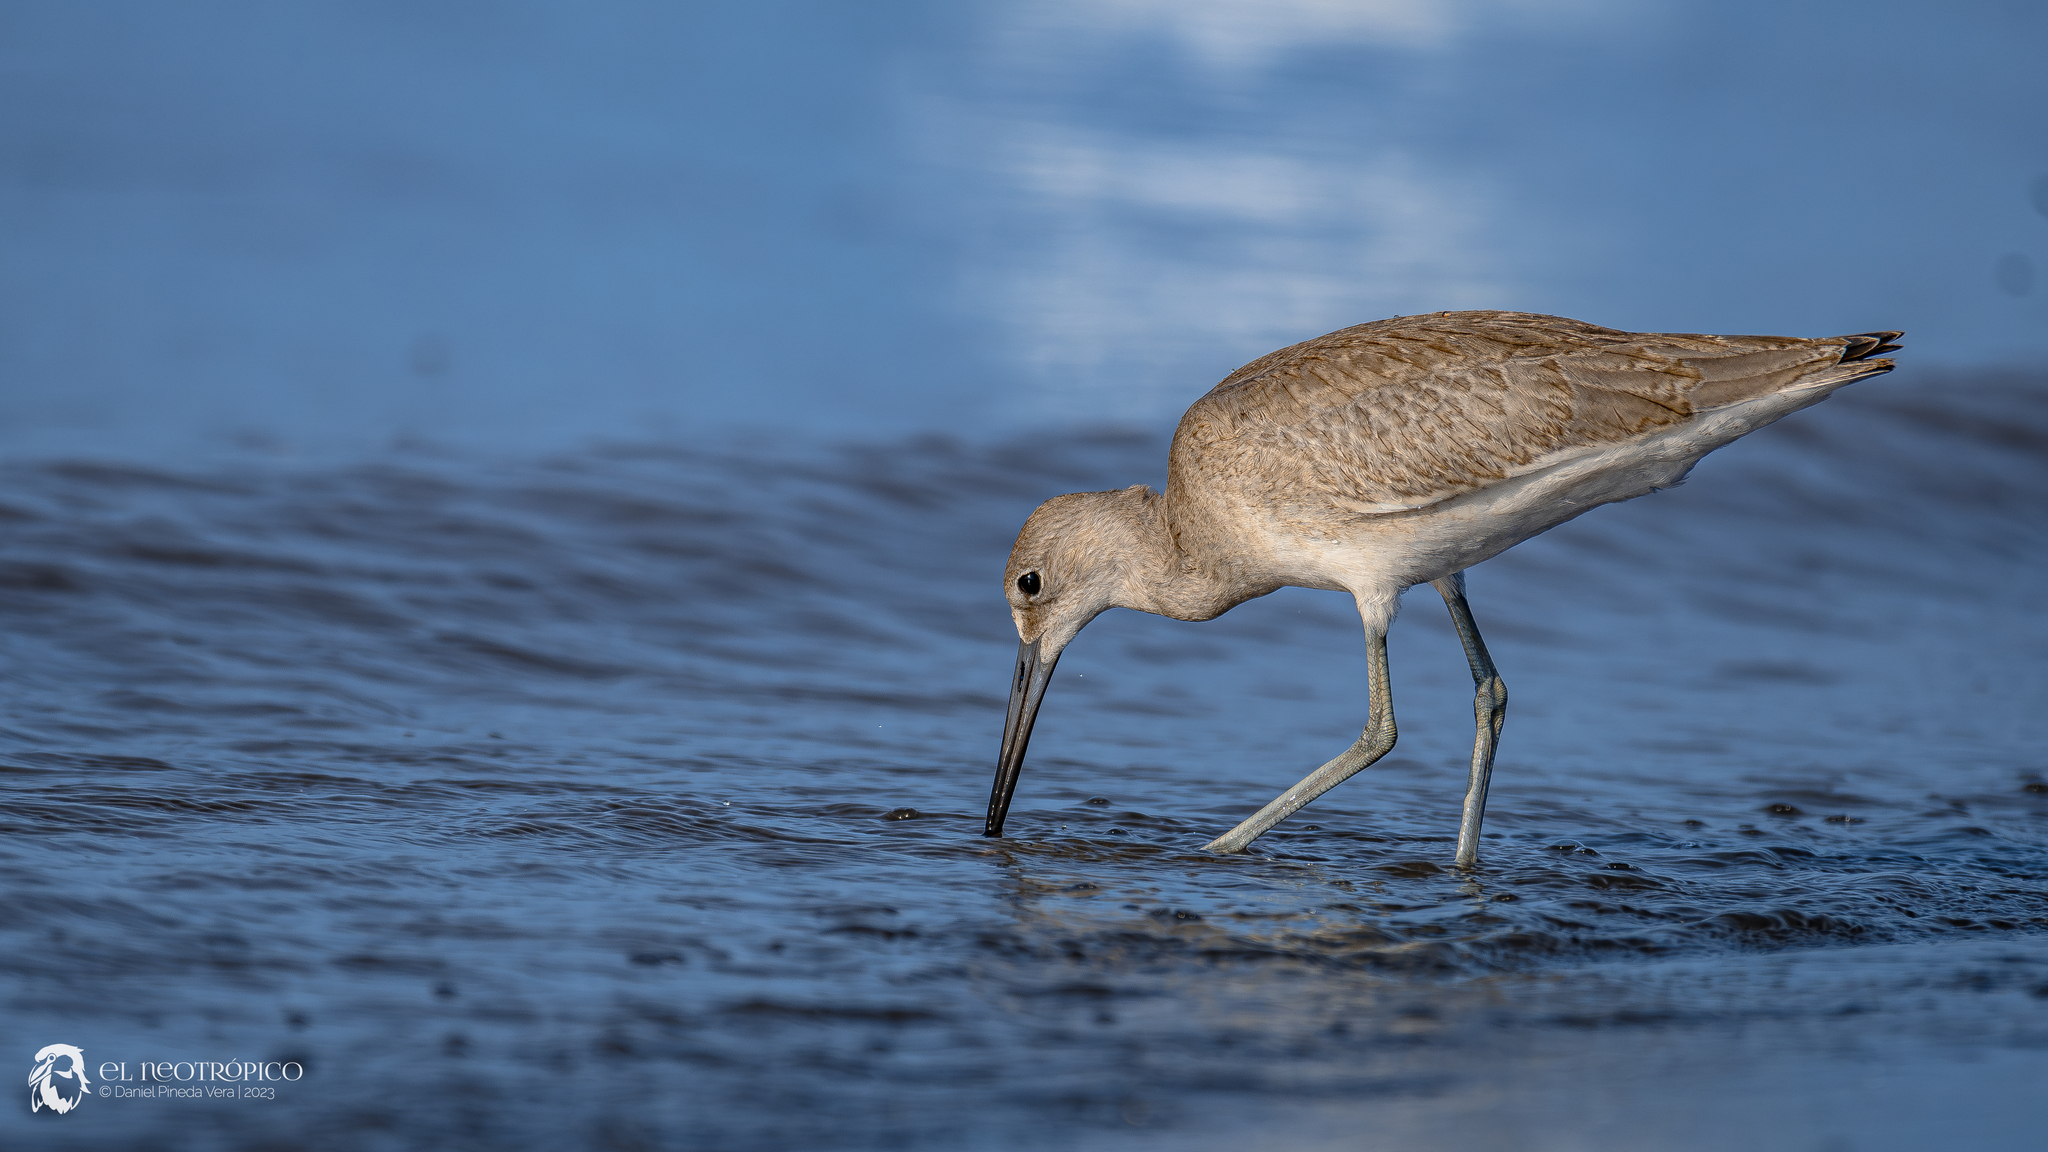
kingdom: Animalia
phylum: Chordata
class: Aves
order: Charadriiformes
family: Scolopacidae
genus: Tringa
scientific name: Tringa semipalmata
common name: Willet
